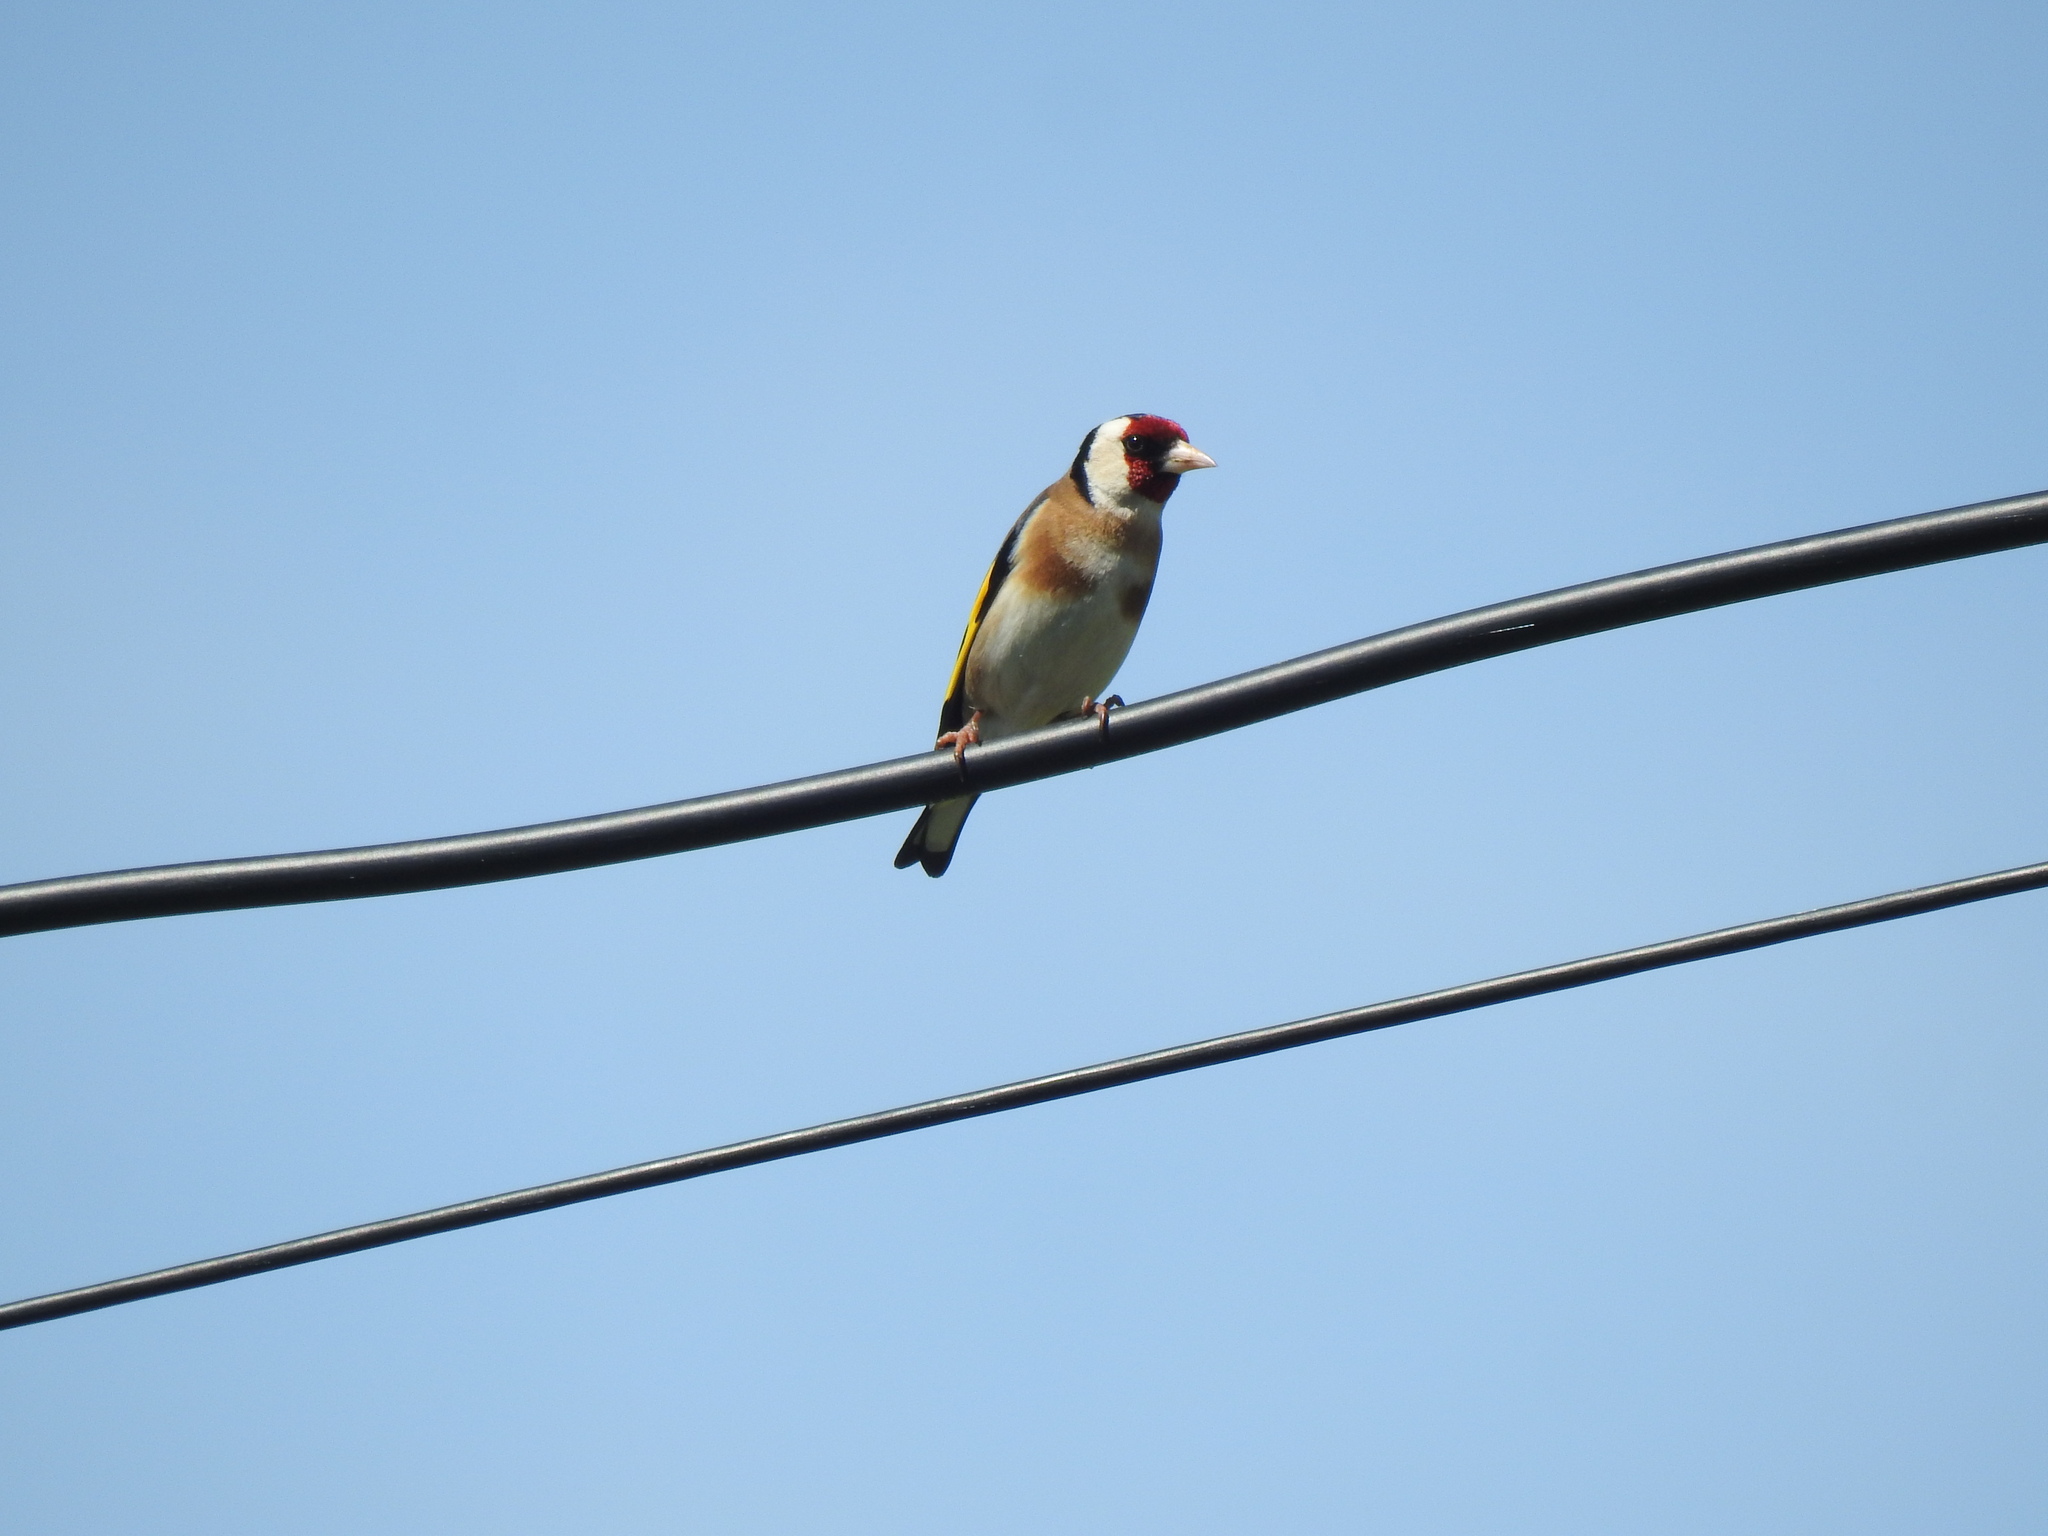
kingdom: Animalia
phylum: Chordata
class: Aves
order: Passeriformes
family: Fringillidae
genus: Carduelis
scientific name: Carduelis carduelis
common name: European goldfinch
